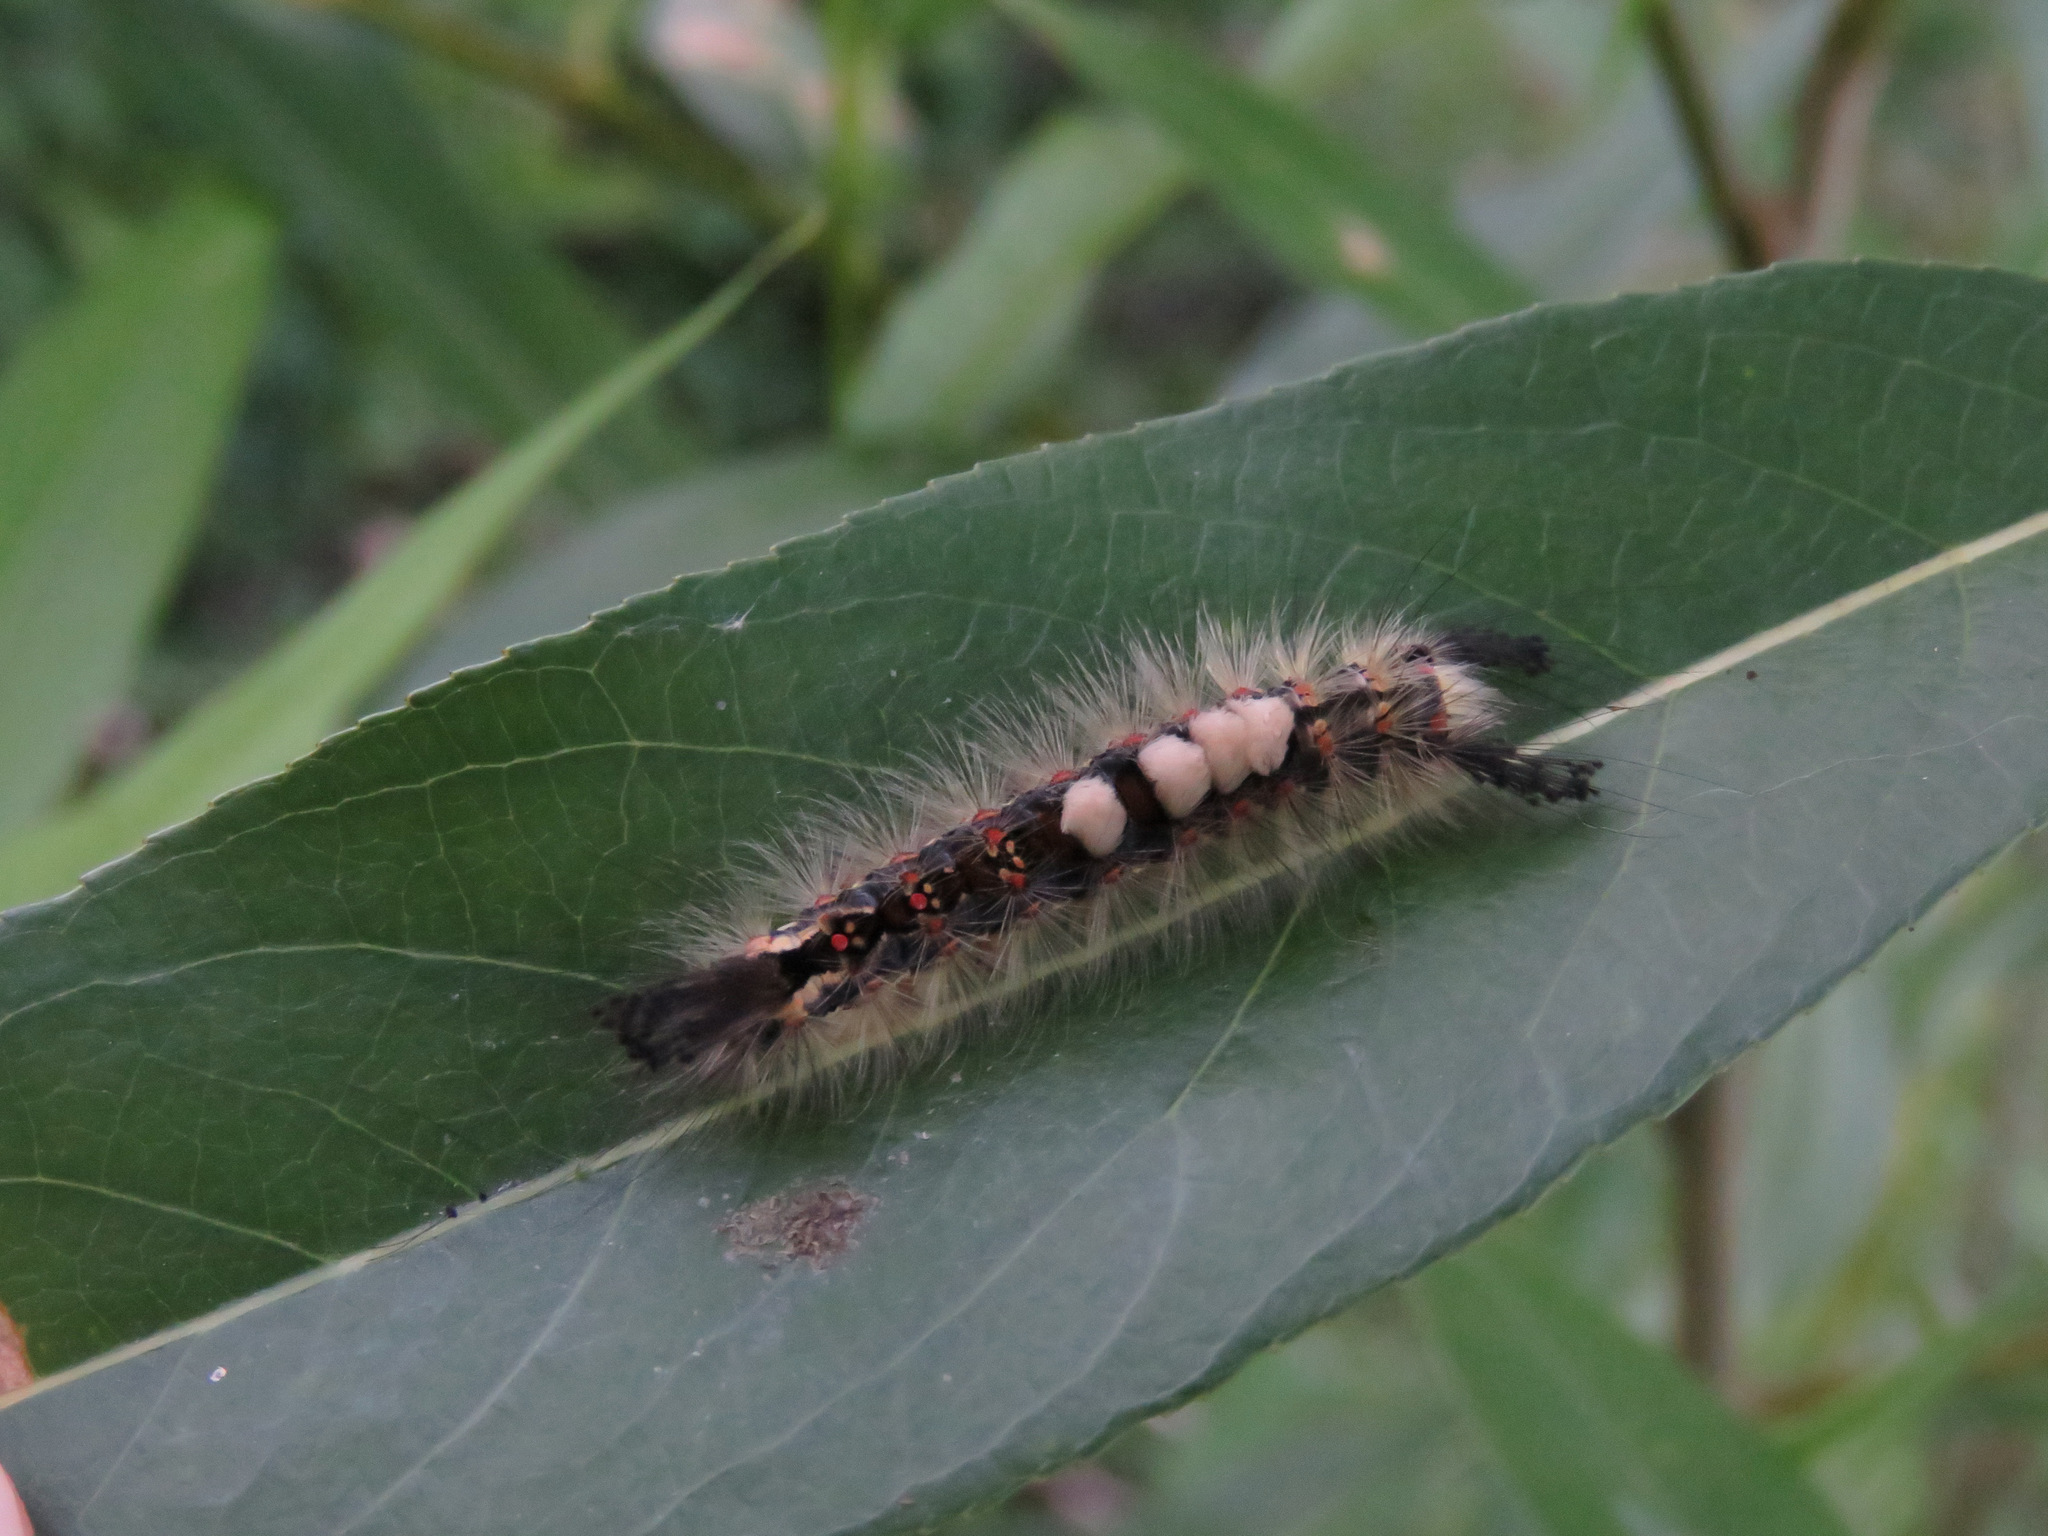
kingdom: Animalia
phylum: Arthropoda
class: Insecta
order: Lepidoptera
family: Erebidae
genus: Orgyia
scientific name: Orgyia antiqua
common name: Vapourer
